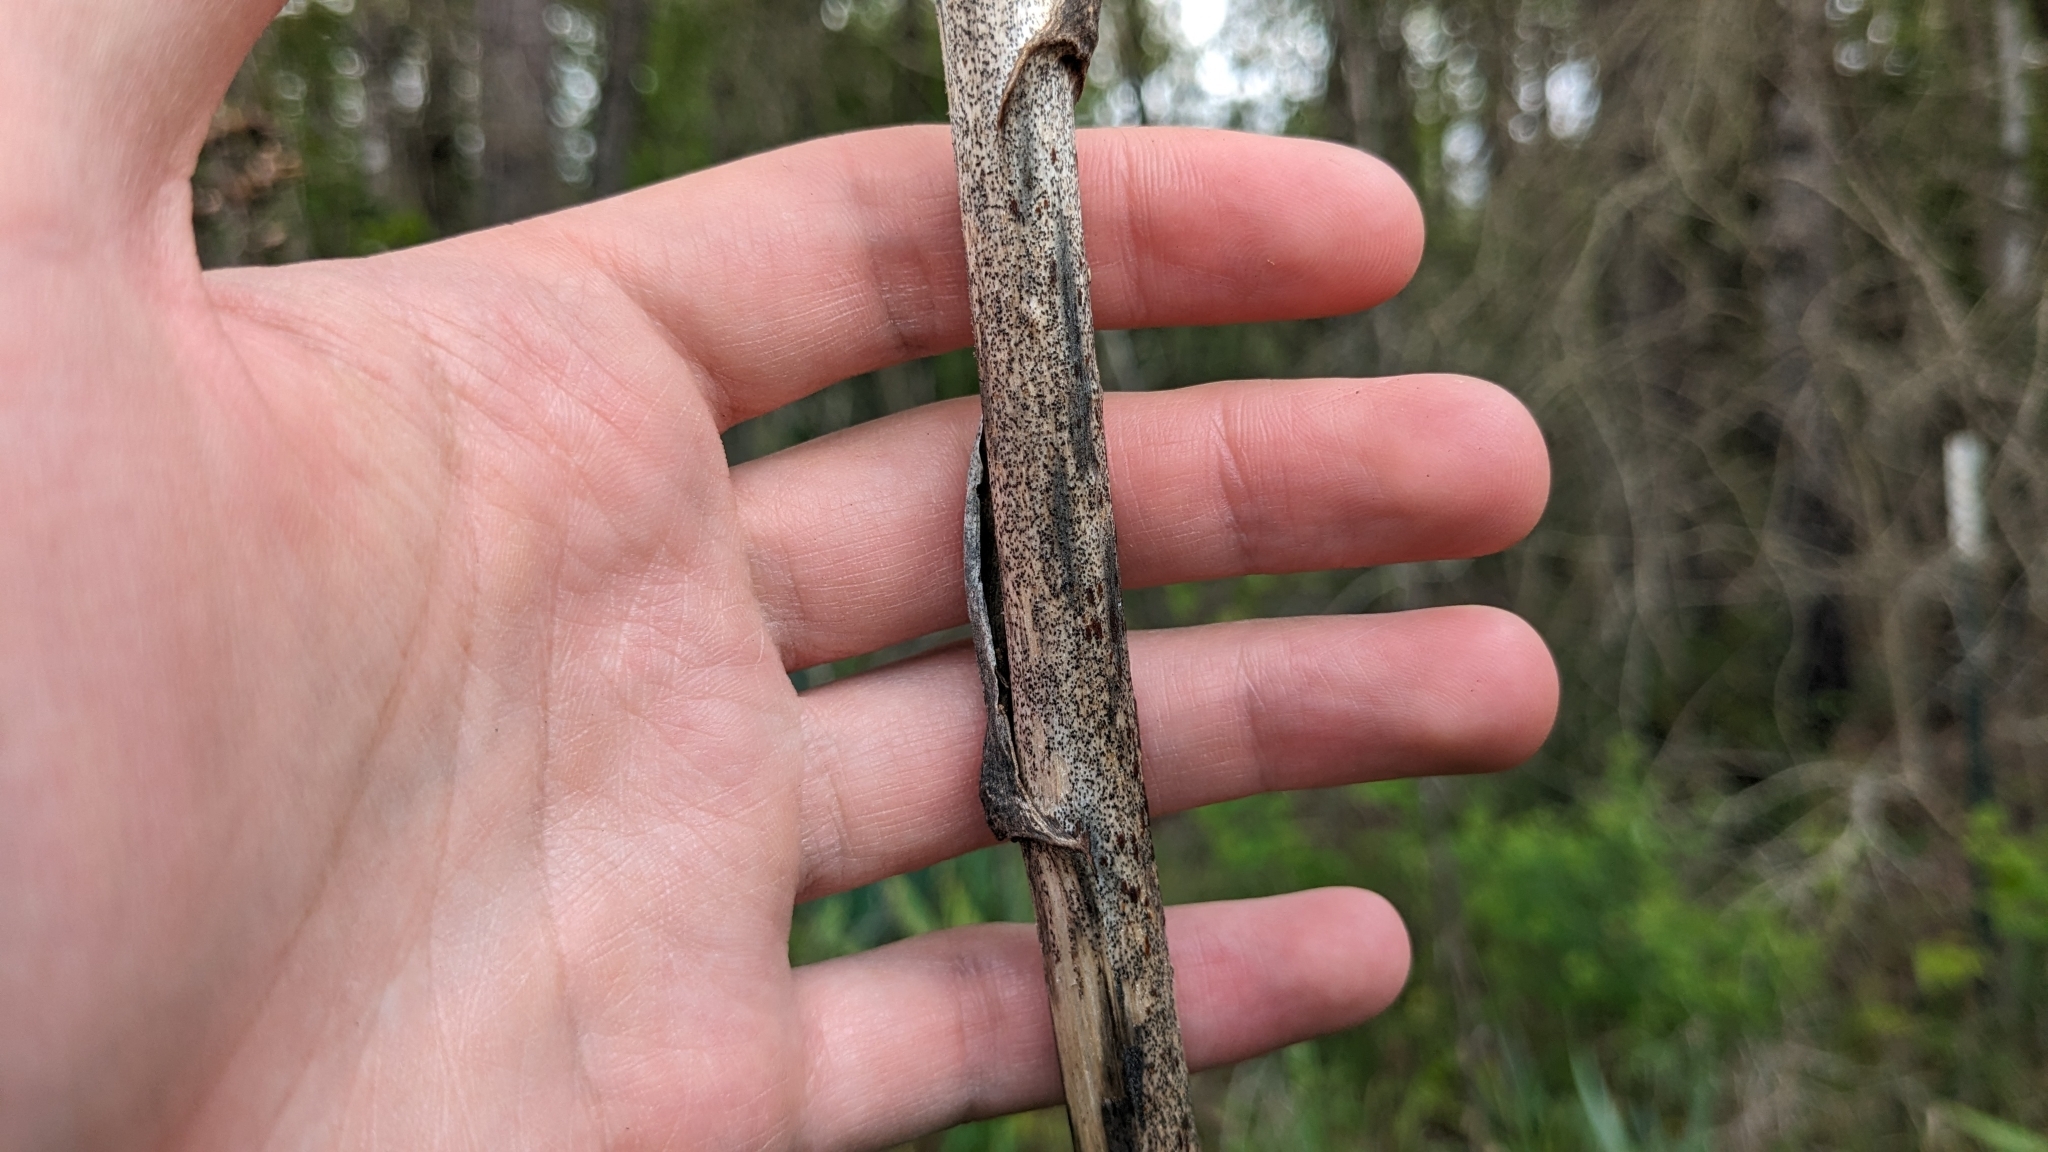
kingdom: Plantae
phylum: Tracheophyta
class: Liliopsida
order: Asparagales
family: Asparagaceae
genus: Yucca
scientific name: Yucca cernua
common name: Nodding yucca
